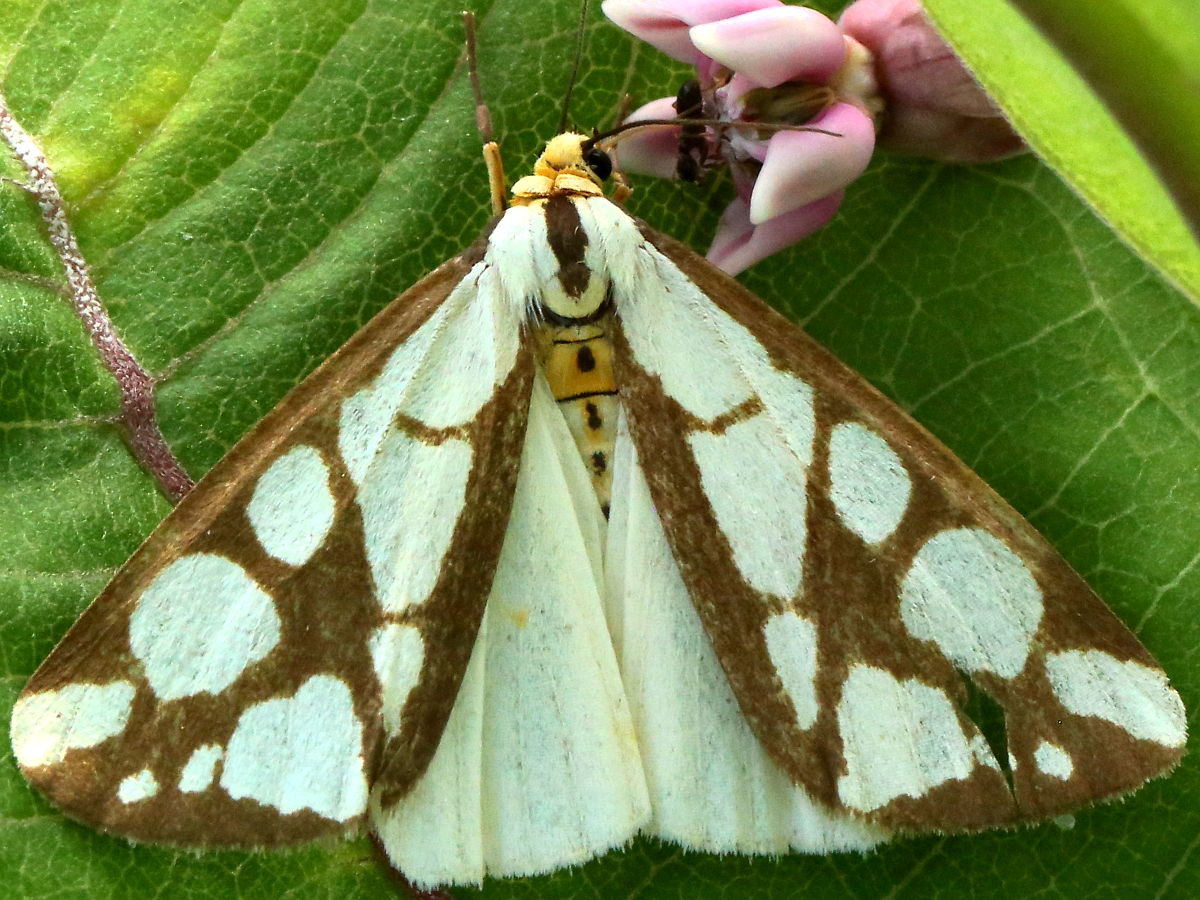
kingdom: Animalia
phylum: Arthropoda
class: Insecta
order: Lepidoptera
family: Erebidae
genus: Haploa
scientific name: Haploa reversa
